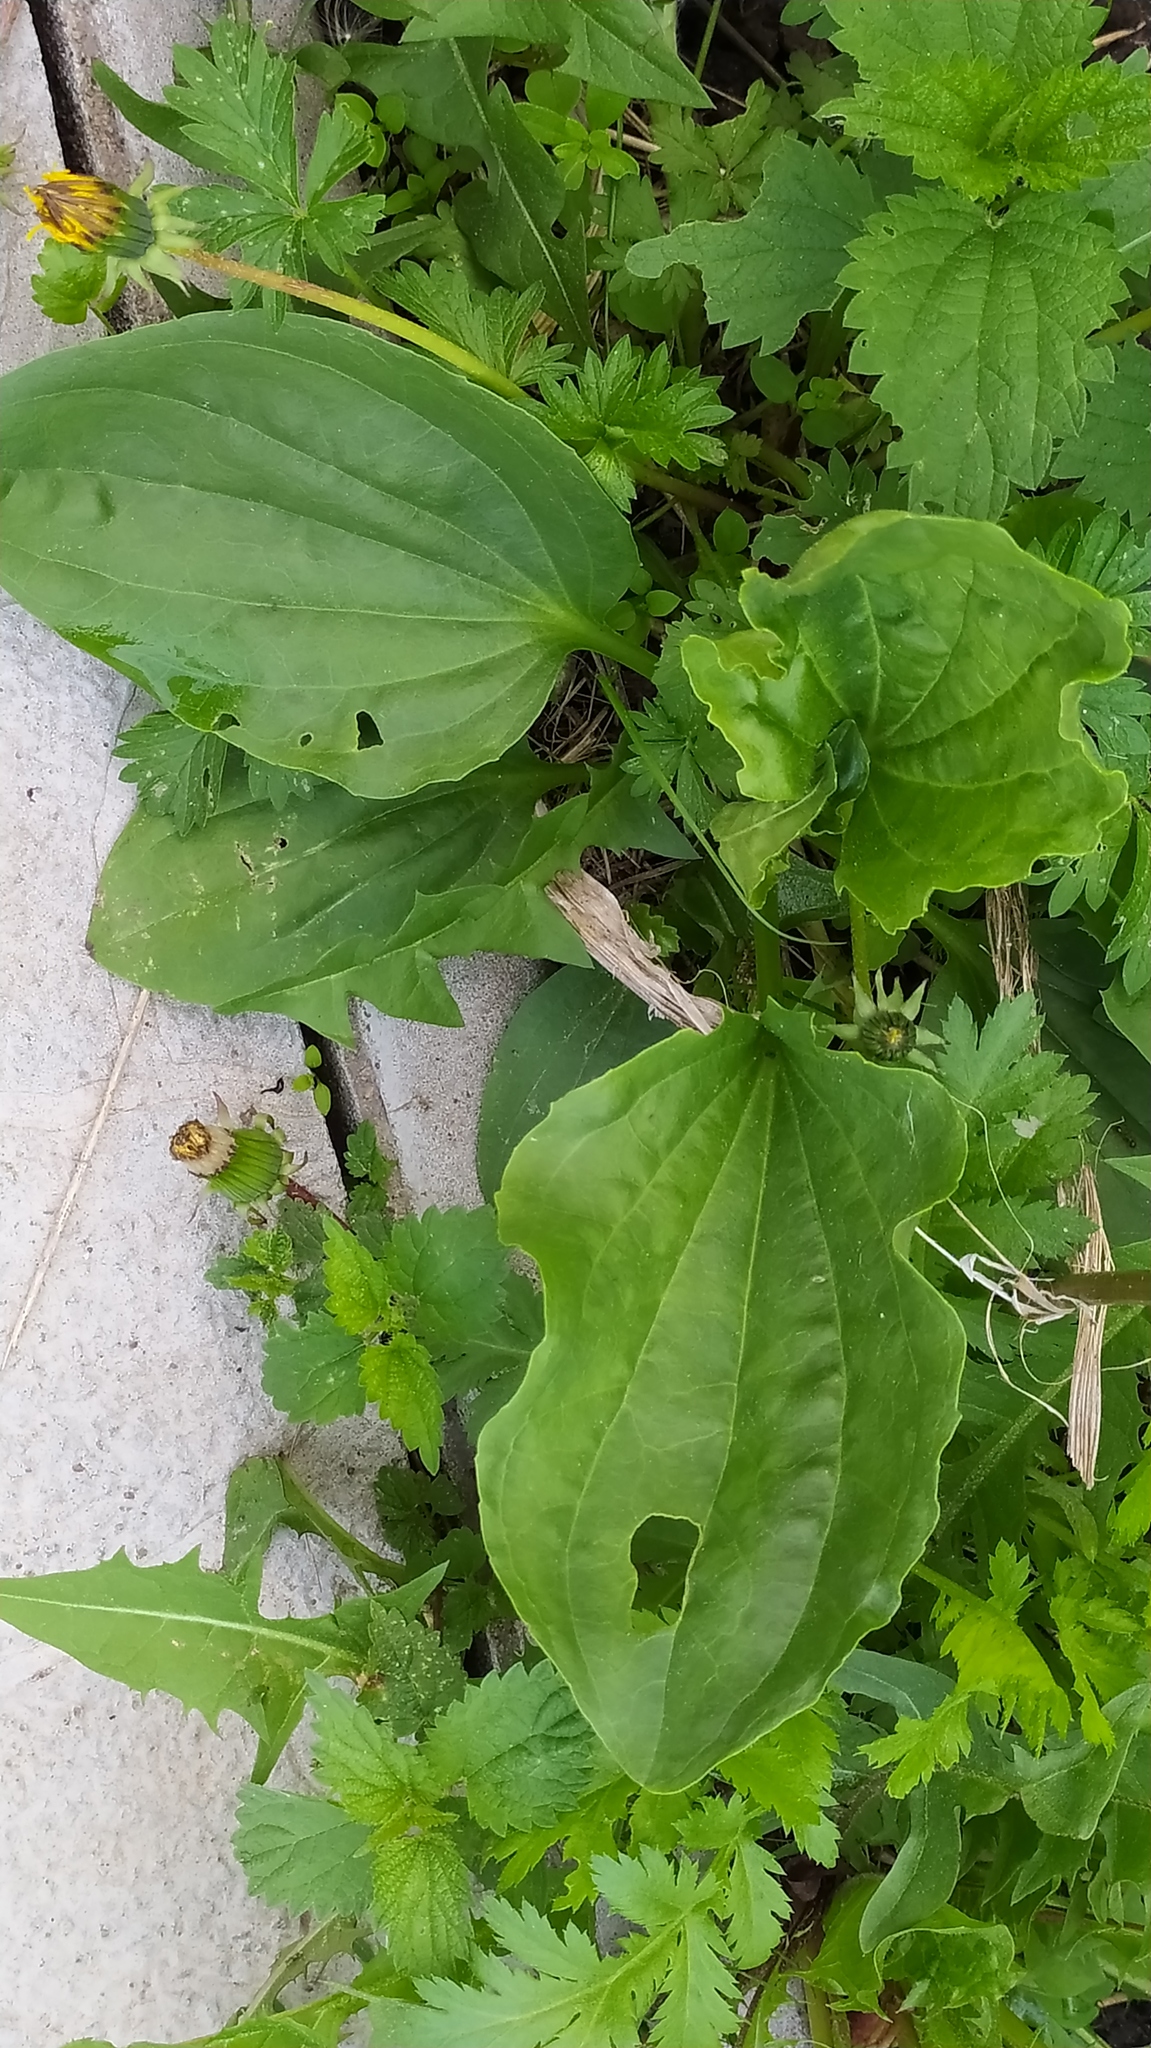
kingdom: Plantae
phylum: Tracheophyta
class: Magnoliopsida
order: Lamiales
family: Plantaginaceae
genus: Plantago
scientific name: Plantago major
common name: Common plantain
